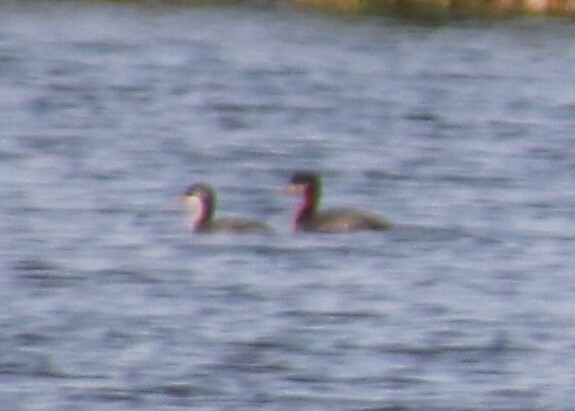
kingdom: Animalia
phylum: Chordata
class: Aves
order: Podicipediformes
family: Podicipedidae
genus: Podiceps
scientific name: Podiceps grisegena
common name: Red-necked grebe
